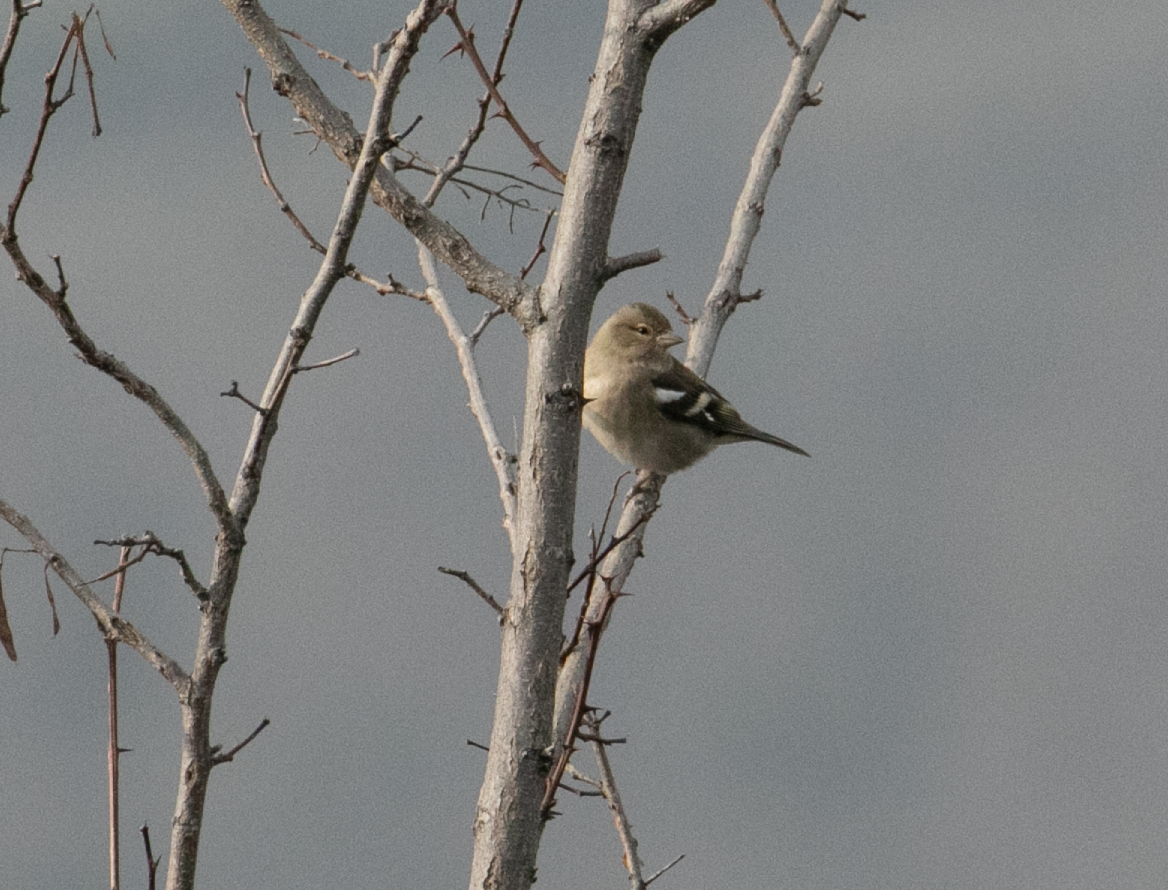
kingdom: Animalia
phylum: Chordata
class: Aves
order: Passeriformes
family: Fringillidae
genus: Fringilla
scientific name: Fringilla coelebs
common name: Common chaffinch
